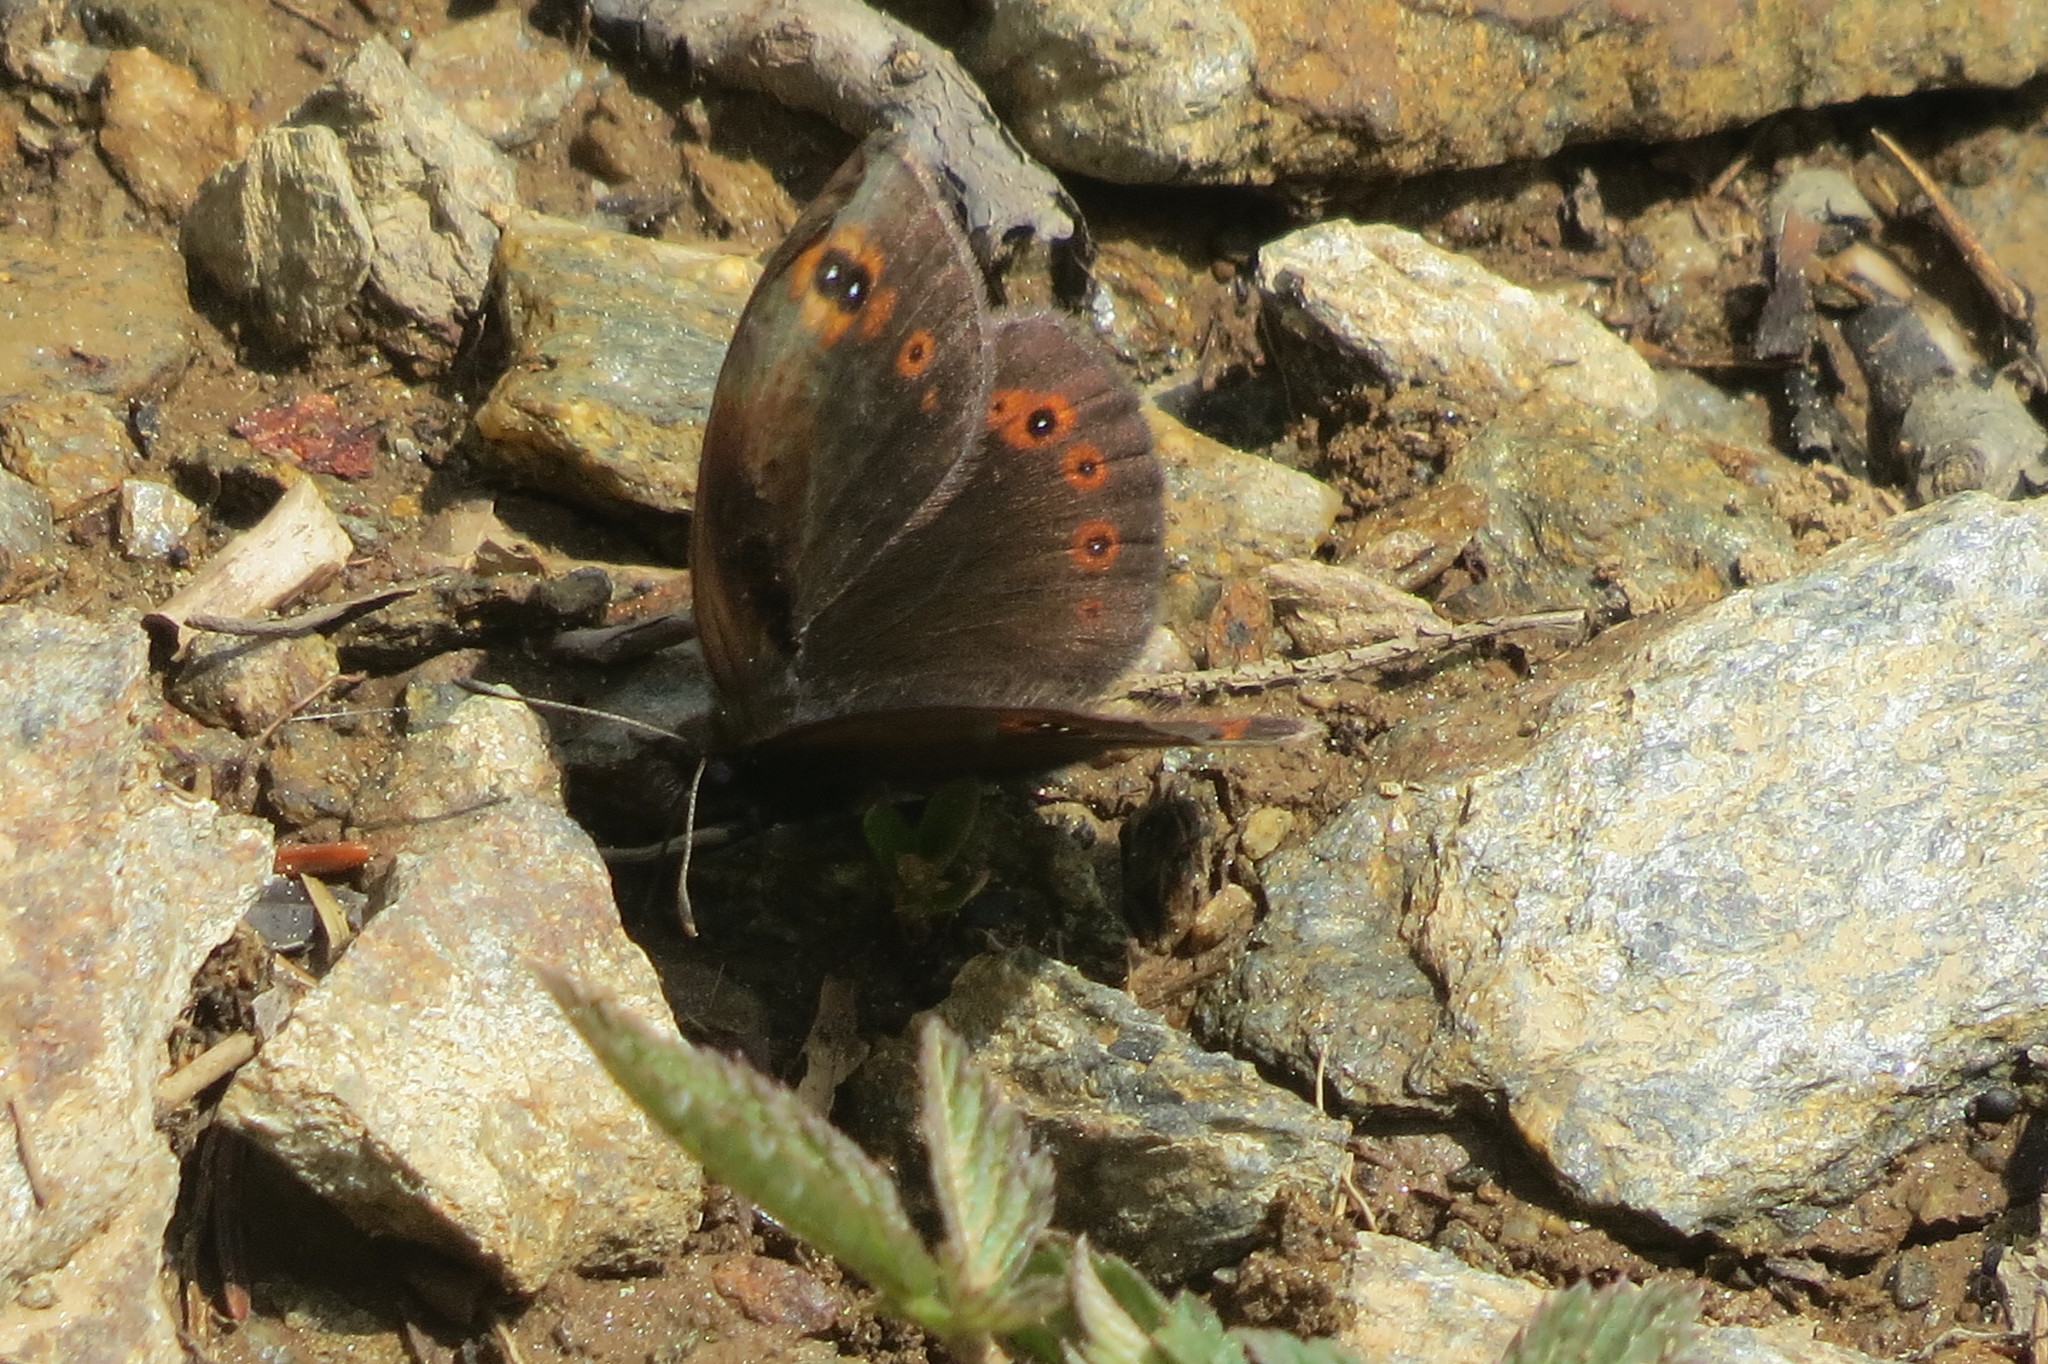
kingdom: Animalia
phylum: Arthropoda
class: Insecta
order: Lepidoptera
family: Nymphalidae
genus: Erebia
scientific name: Erebia medusa
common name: Woodland ringlet
